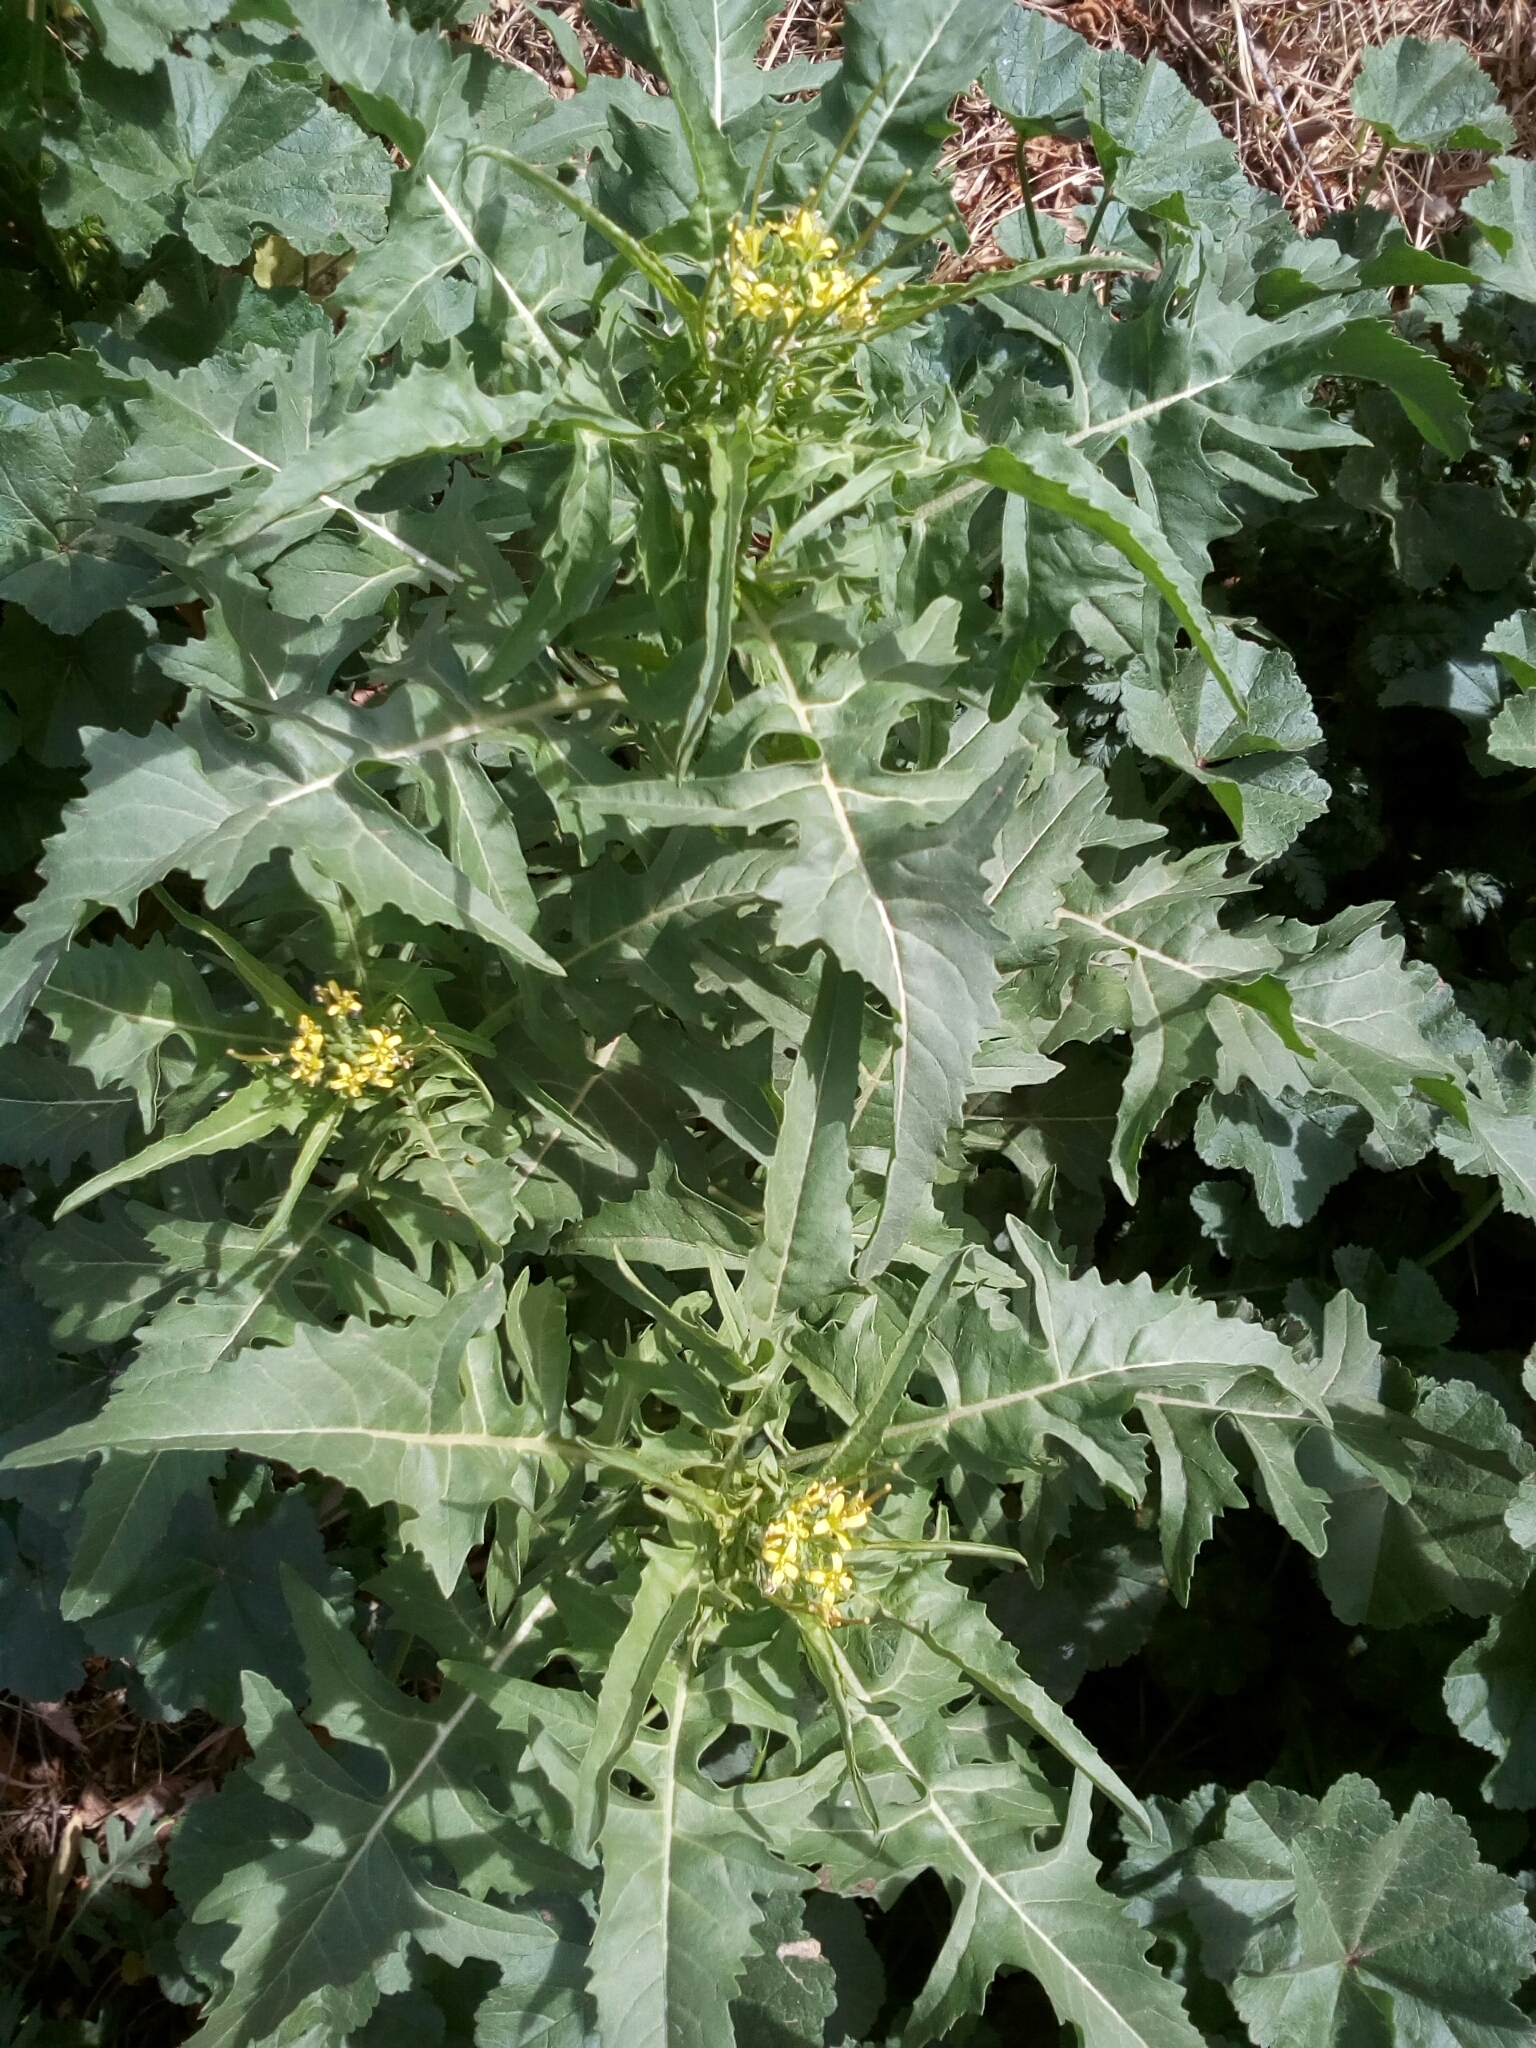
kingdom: Plantae
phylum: Tracheophyta
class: Magnoliopsida
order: Brassicales
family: Brassicaceae
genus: Sisymbrium
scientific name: Sisymbrium irio
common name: London rocket
